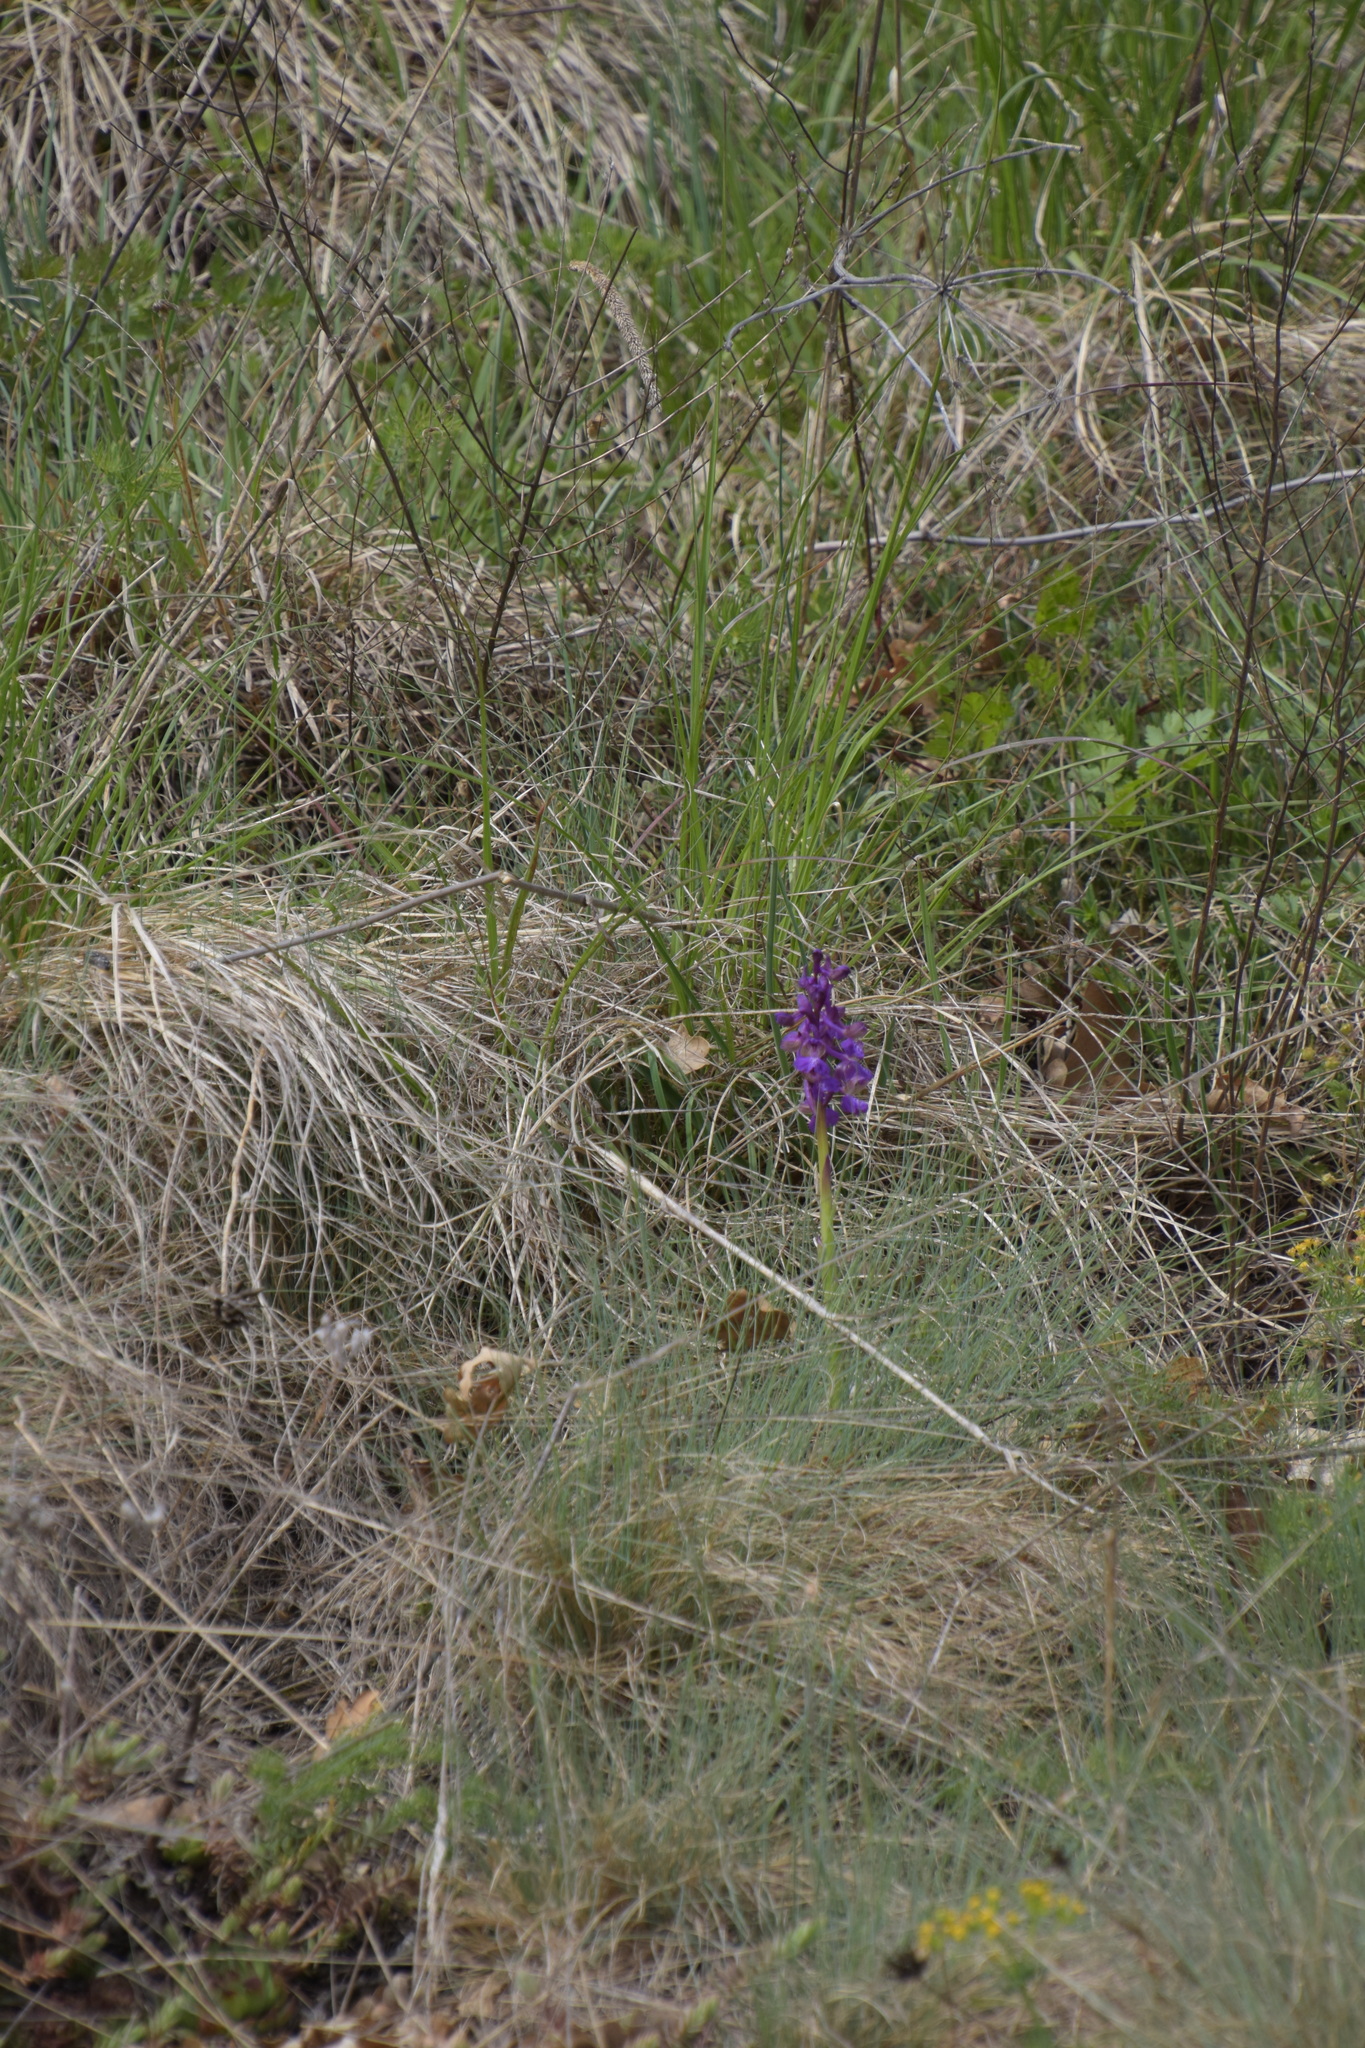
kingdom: Plantae
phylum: Tracheophyta
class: Liliopsida
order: Asparagales
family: Orchidaceae
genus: Anacamptis
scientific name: Anacamptis morio
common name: Green-winged orchid
